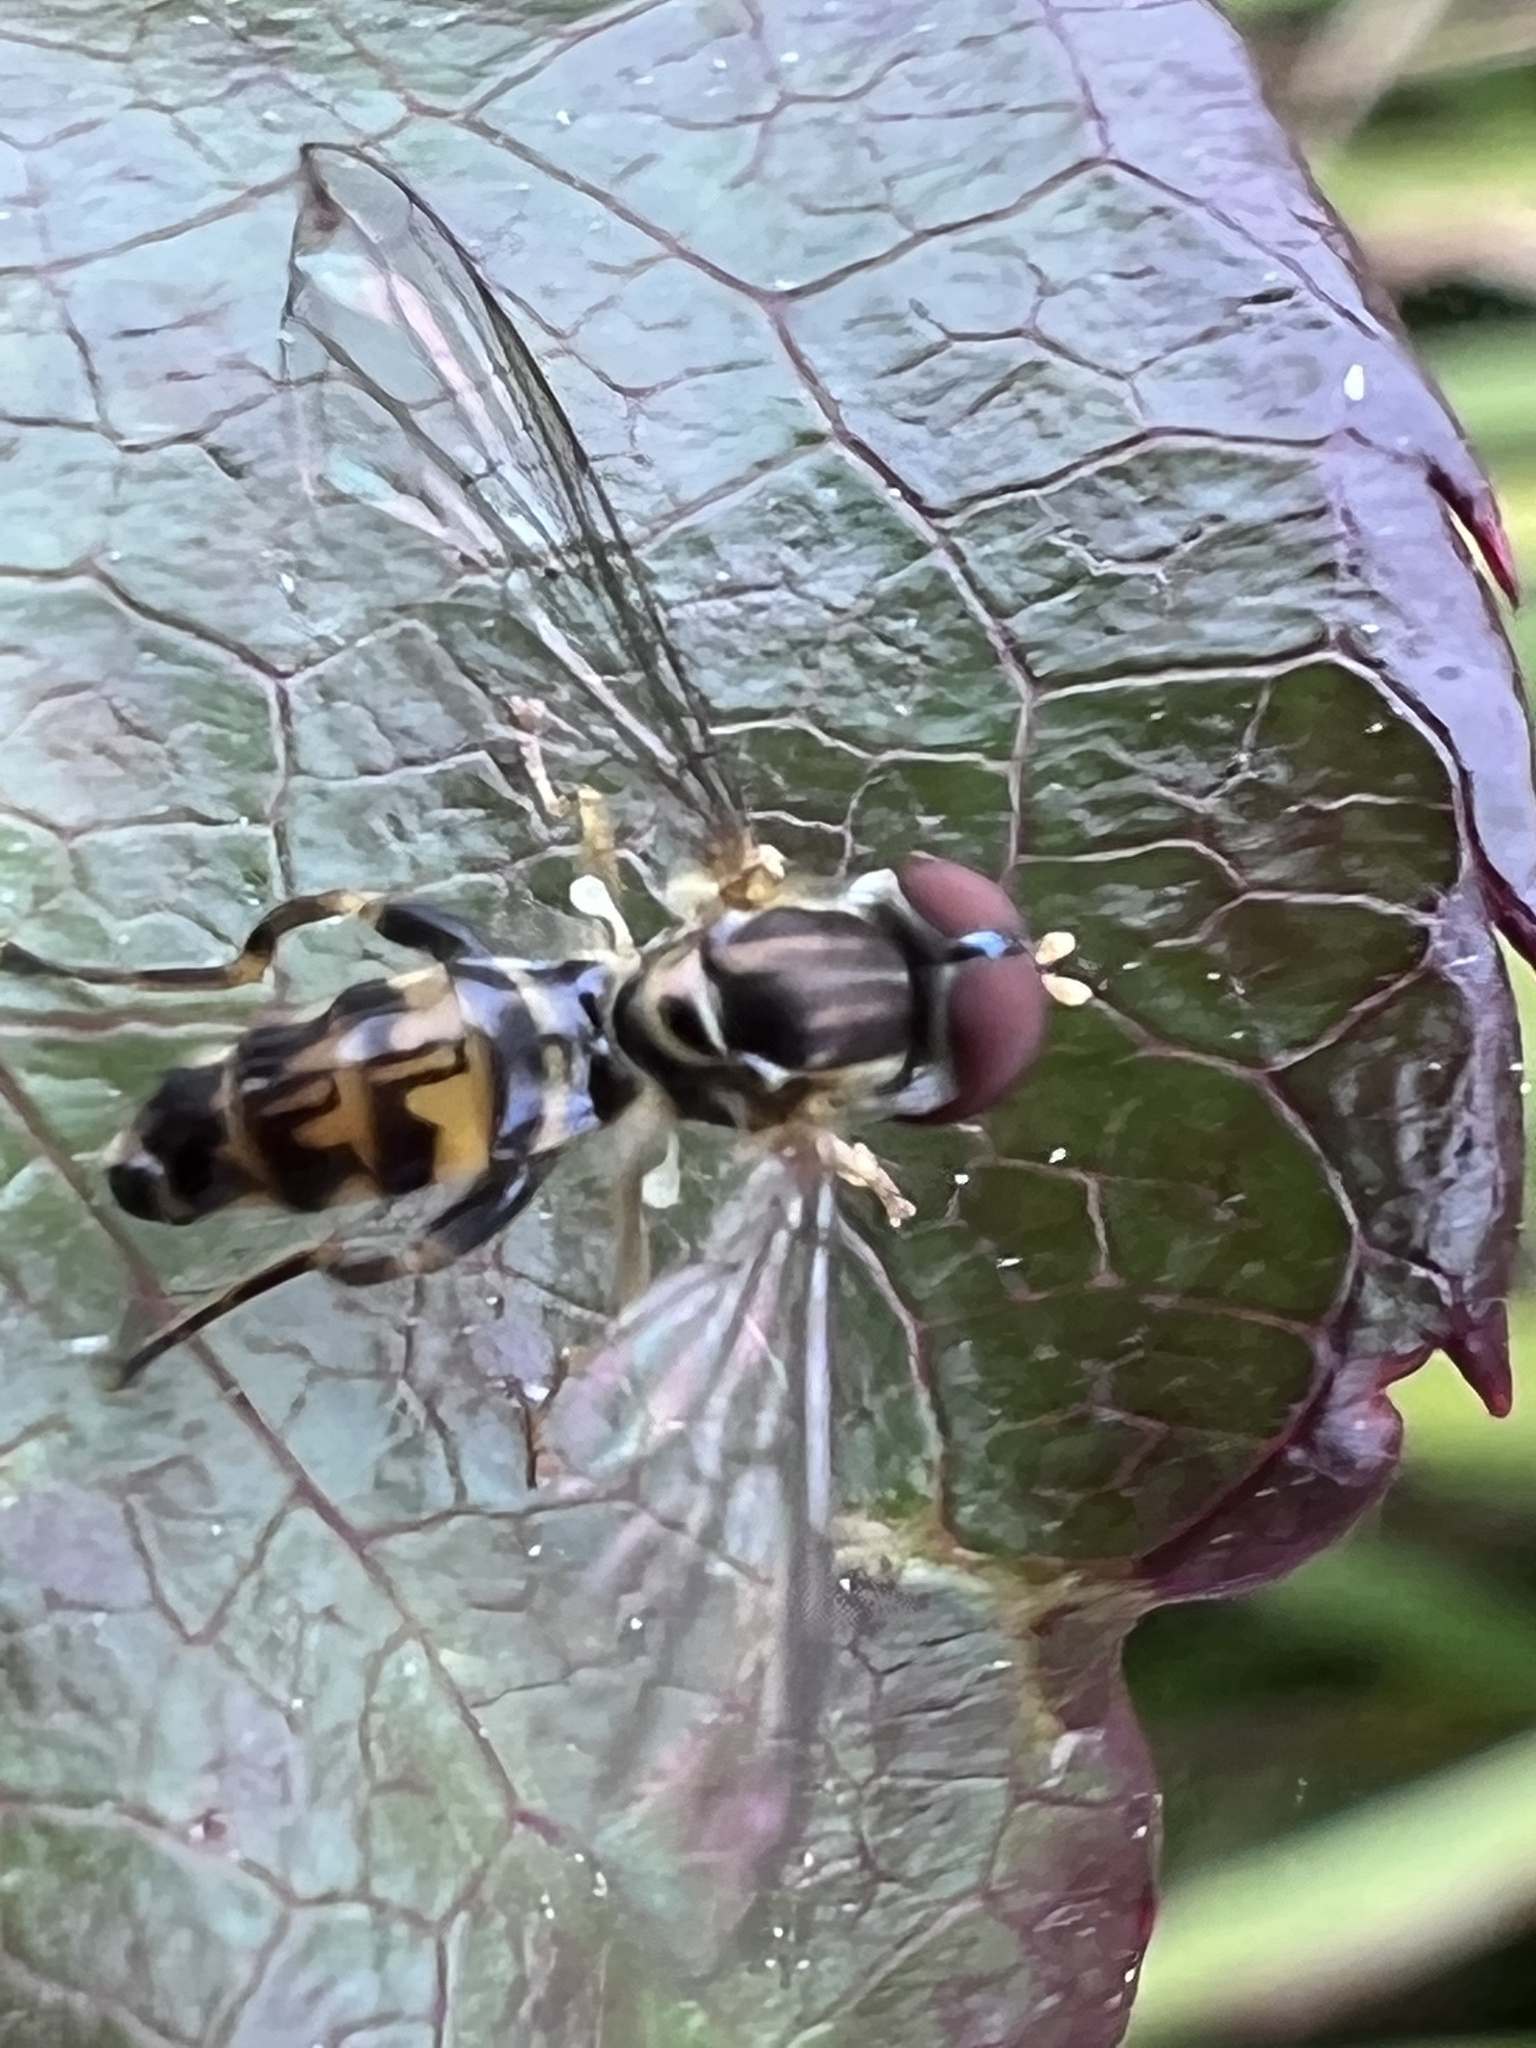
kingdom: Animalia
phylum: Arthropoda
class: Insecta
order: Diptera
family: Syrphidae
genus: Toxomerus
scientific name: Toxomerus geminatus
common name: Eastern calligrapher
